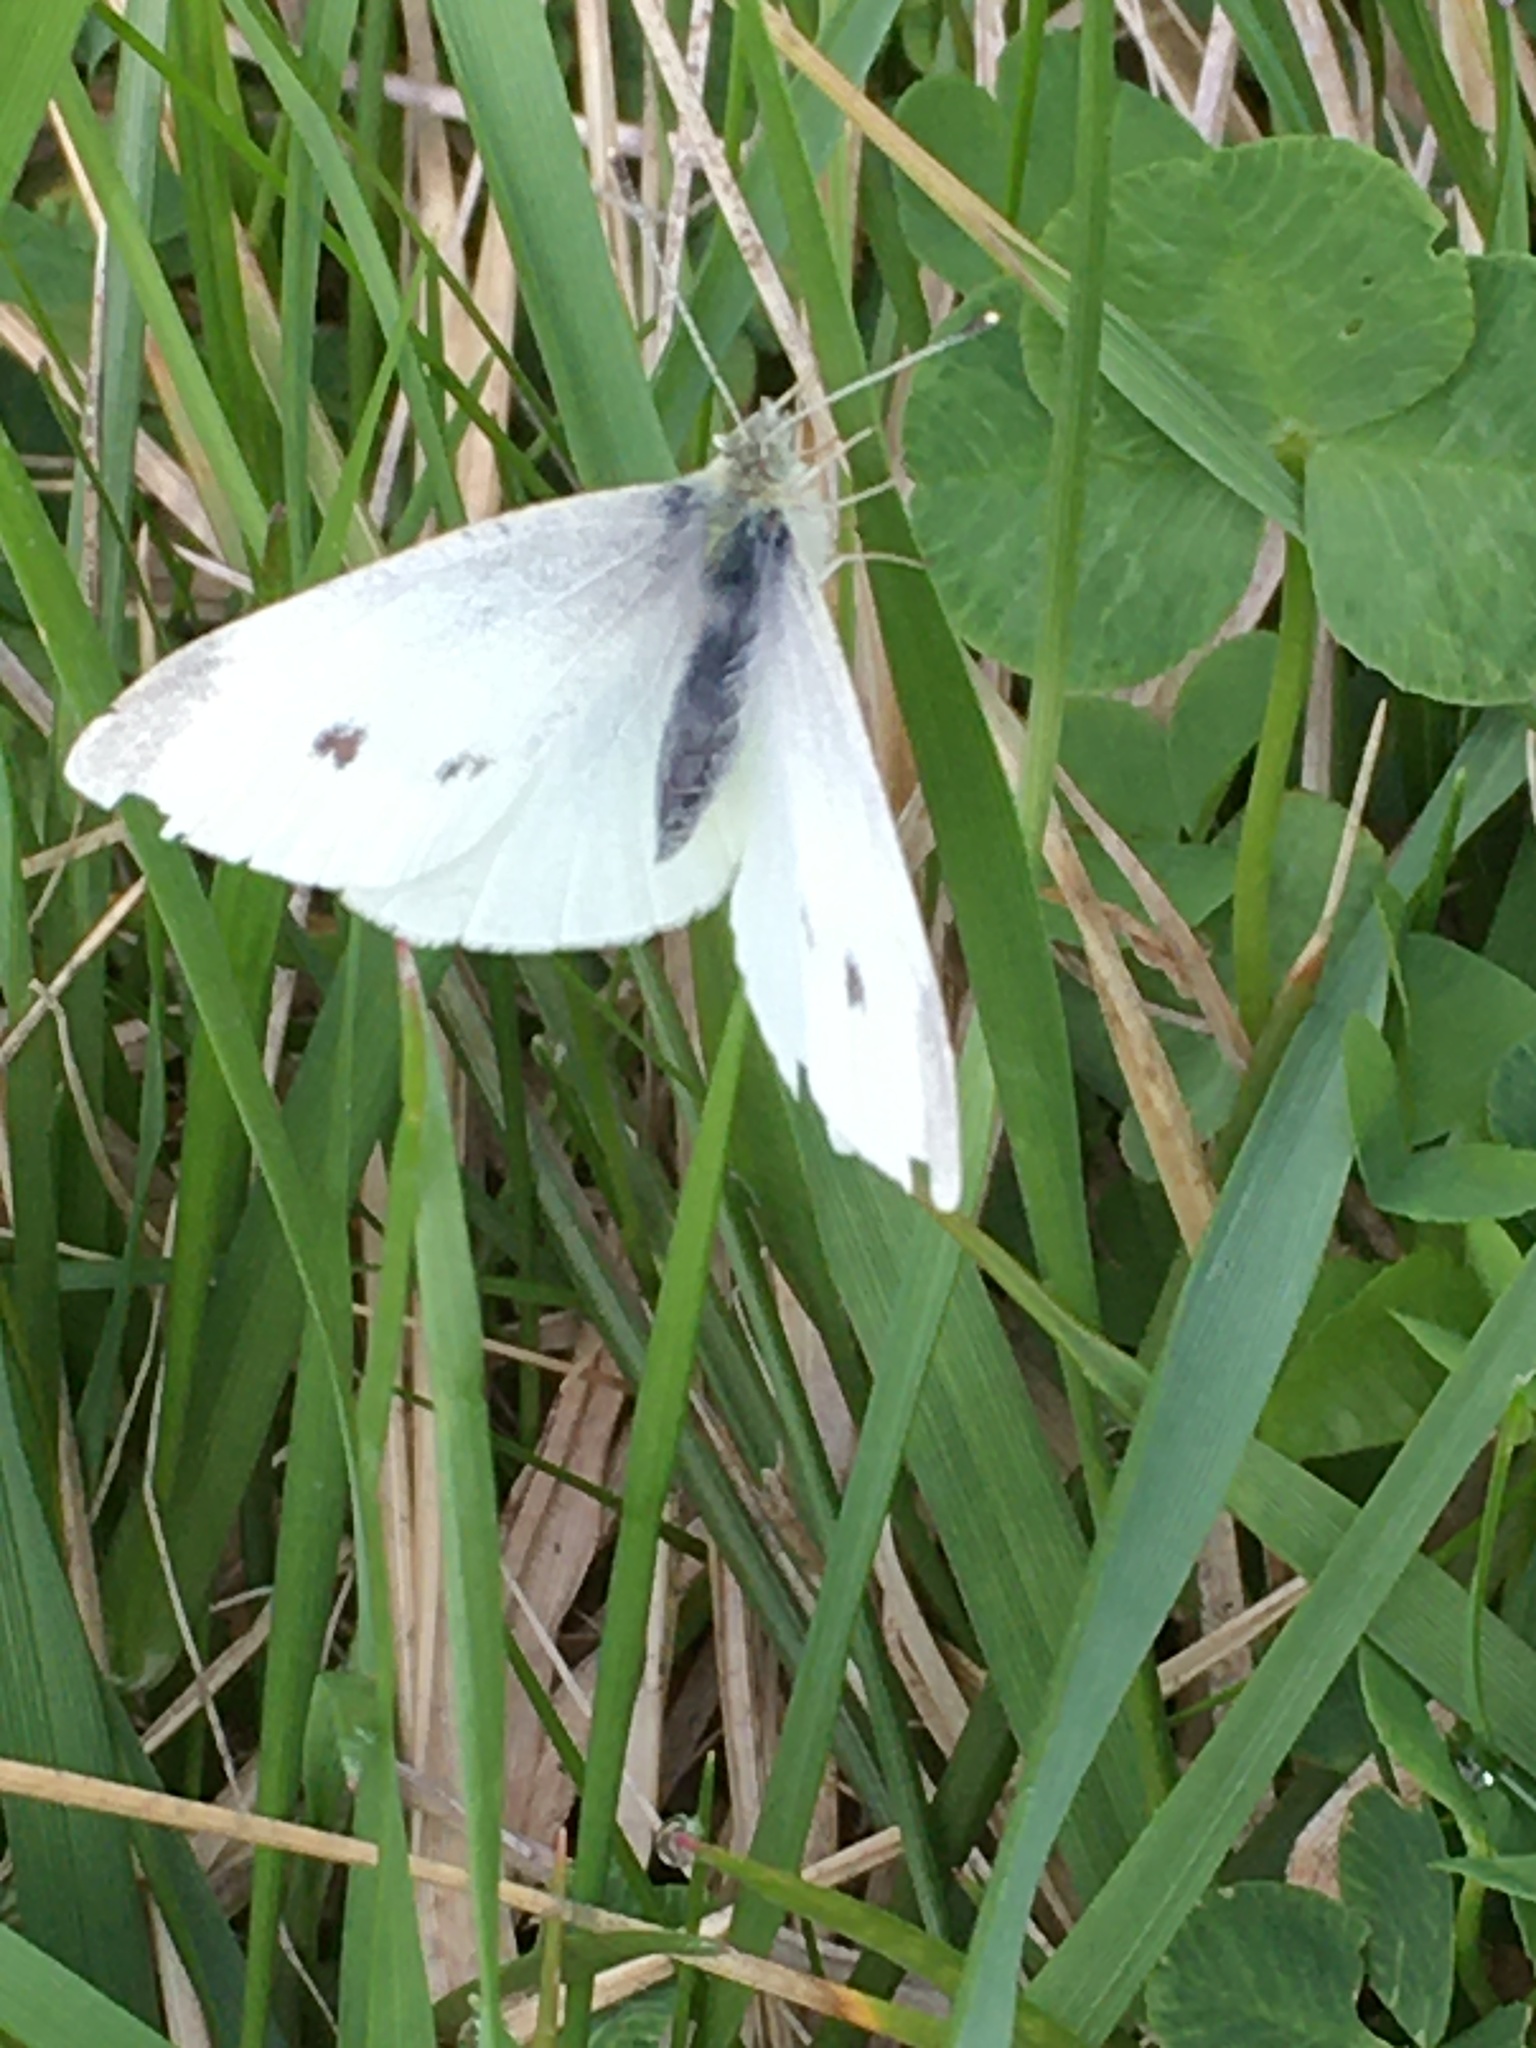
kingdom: Animalia
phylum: Arthropoda
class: Insecta
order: Lepidoptera
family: Pieridae
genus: Pieris
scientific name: Pieris rapae
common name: Small white
